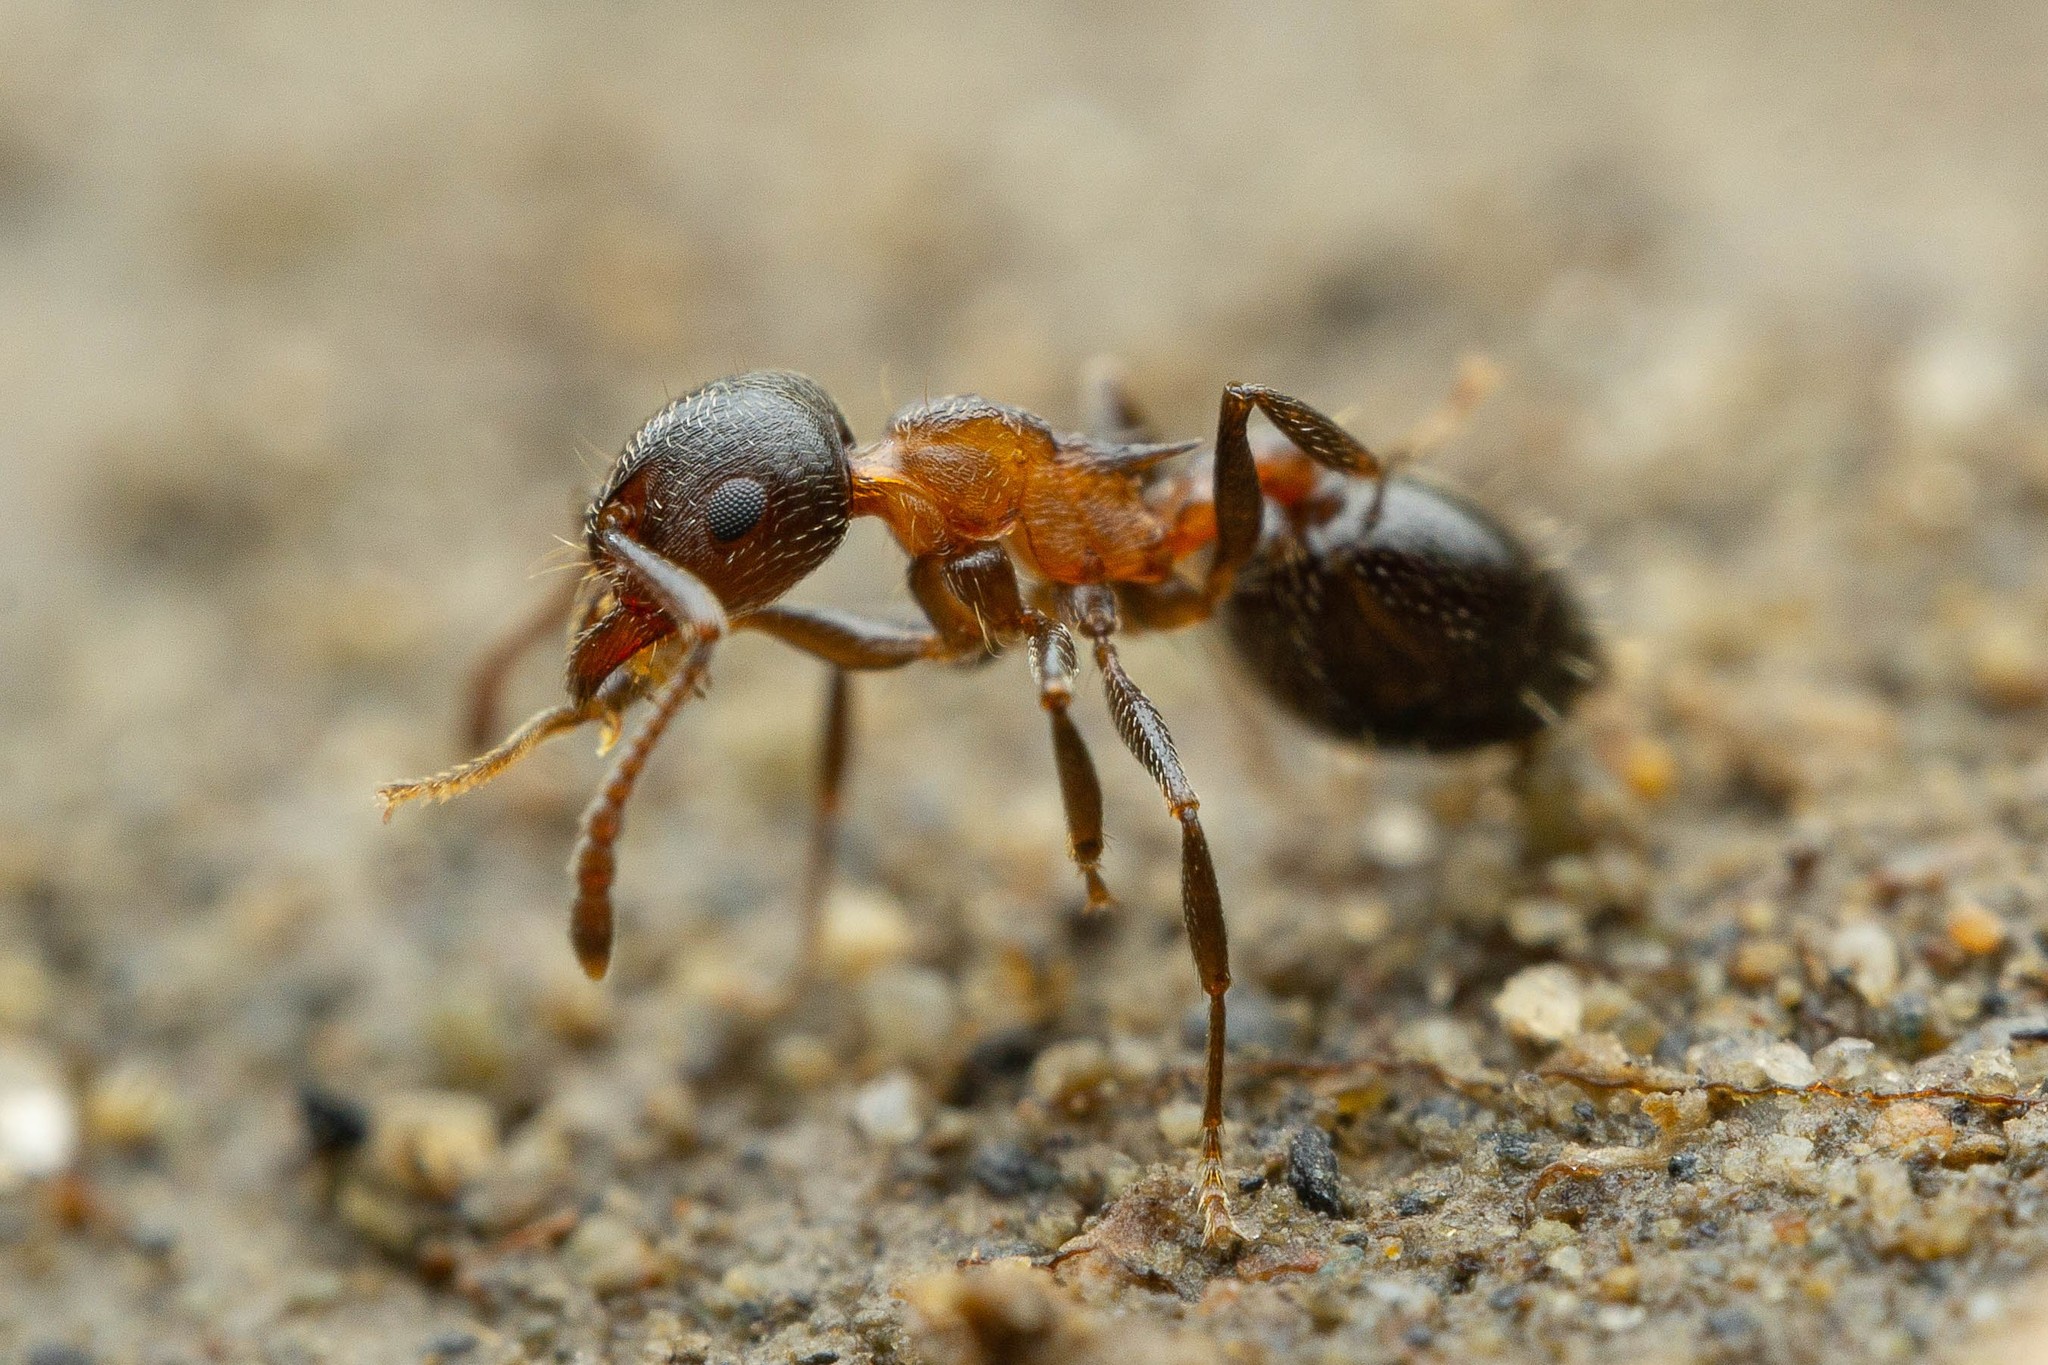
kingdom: Animalia
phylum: Arthropoda
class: Insecta
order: Hymenoptera
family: Formicidae
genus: Crematogaster
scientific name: Crematogaster
